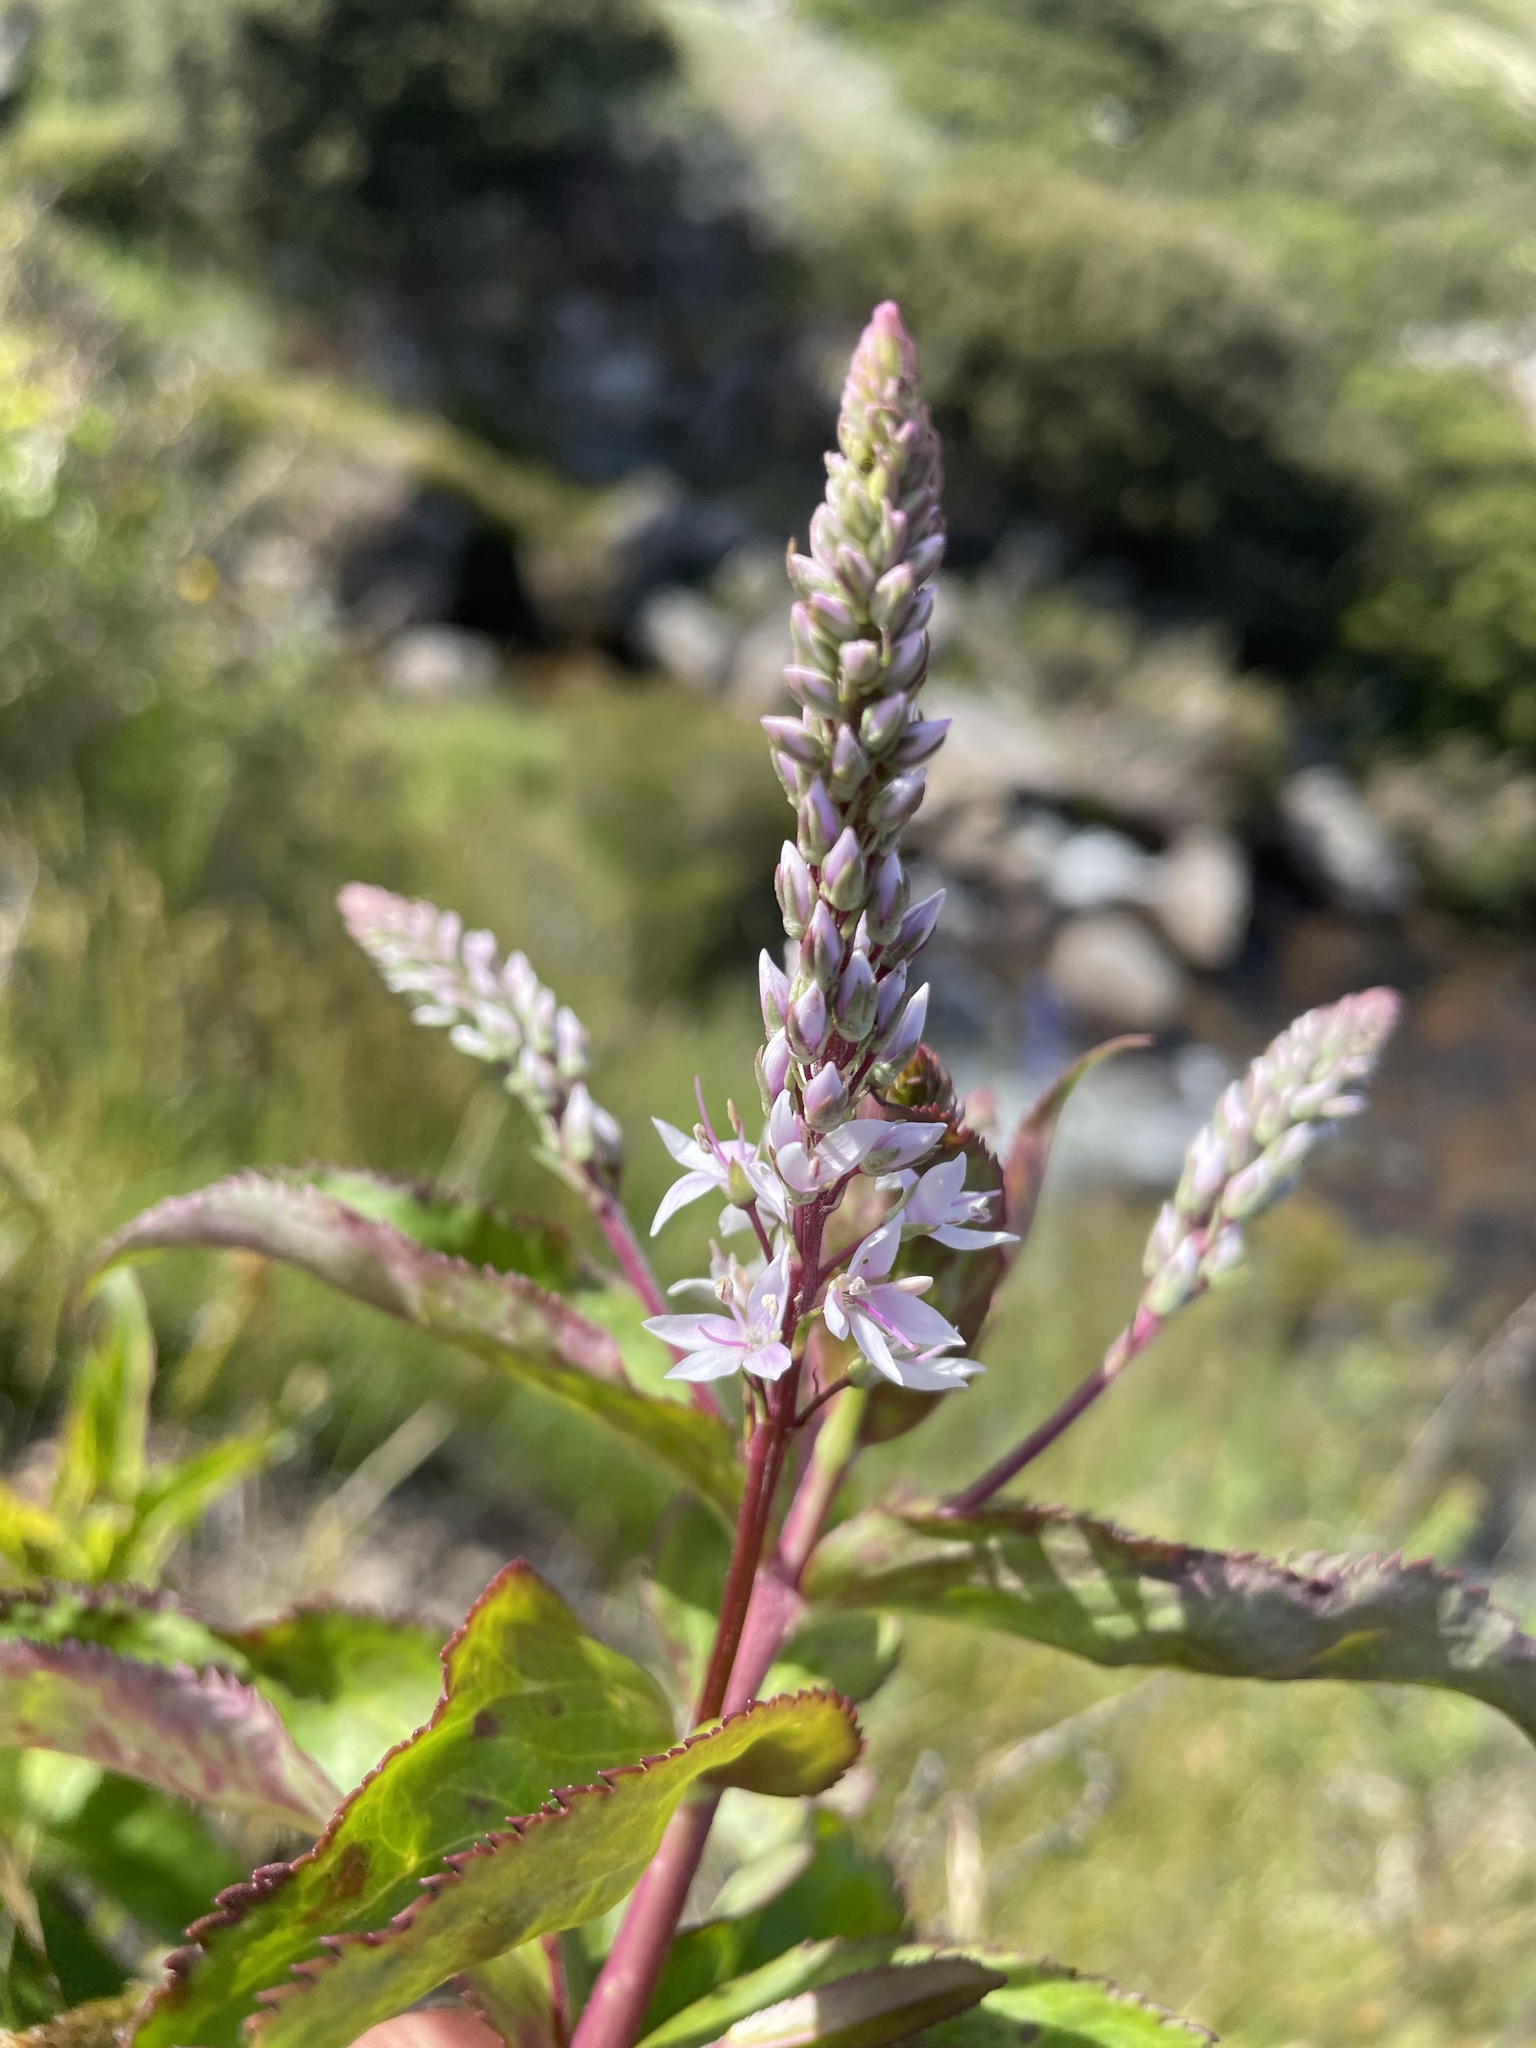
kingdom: Plantae
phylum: Tracheophyta
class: Magnoliopsida
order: Lamiales
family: Plantaginaceae
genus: Veronica
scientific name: Veronica derwentiana
